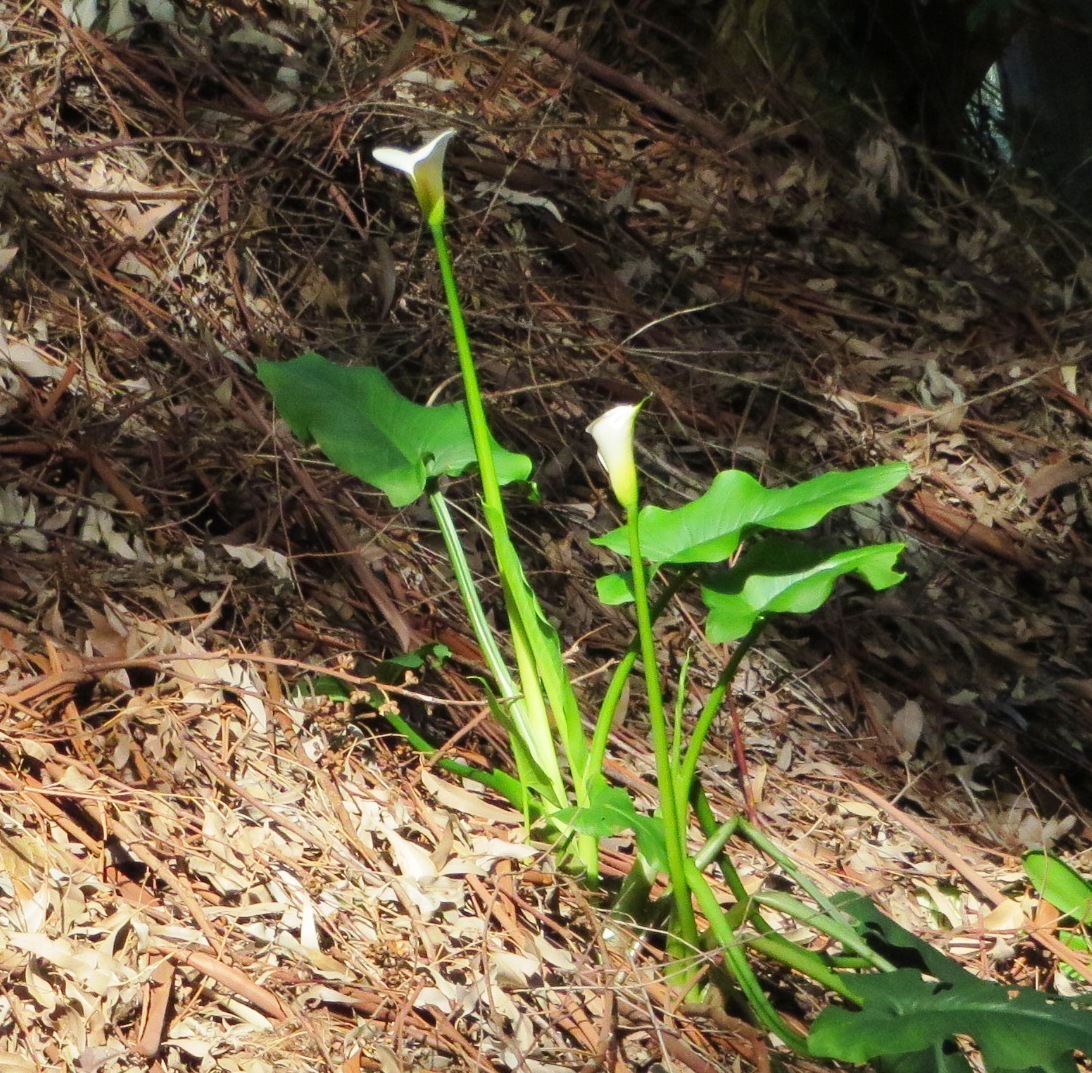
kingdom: Plantae
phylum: Tracheophyta
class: Liliopsida
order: Alismatales
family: Araceae
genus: Zantedeschia
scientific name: Zantedeschia aethiopica
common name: Altar-lily
